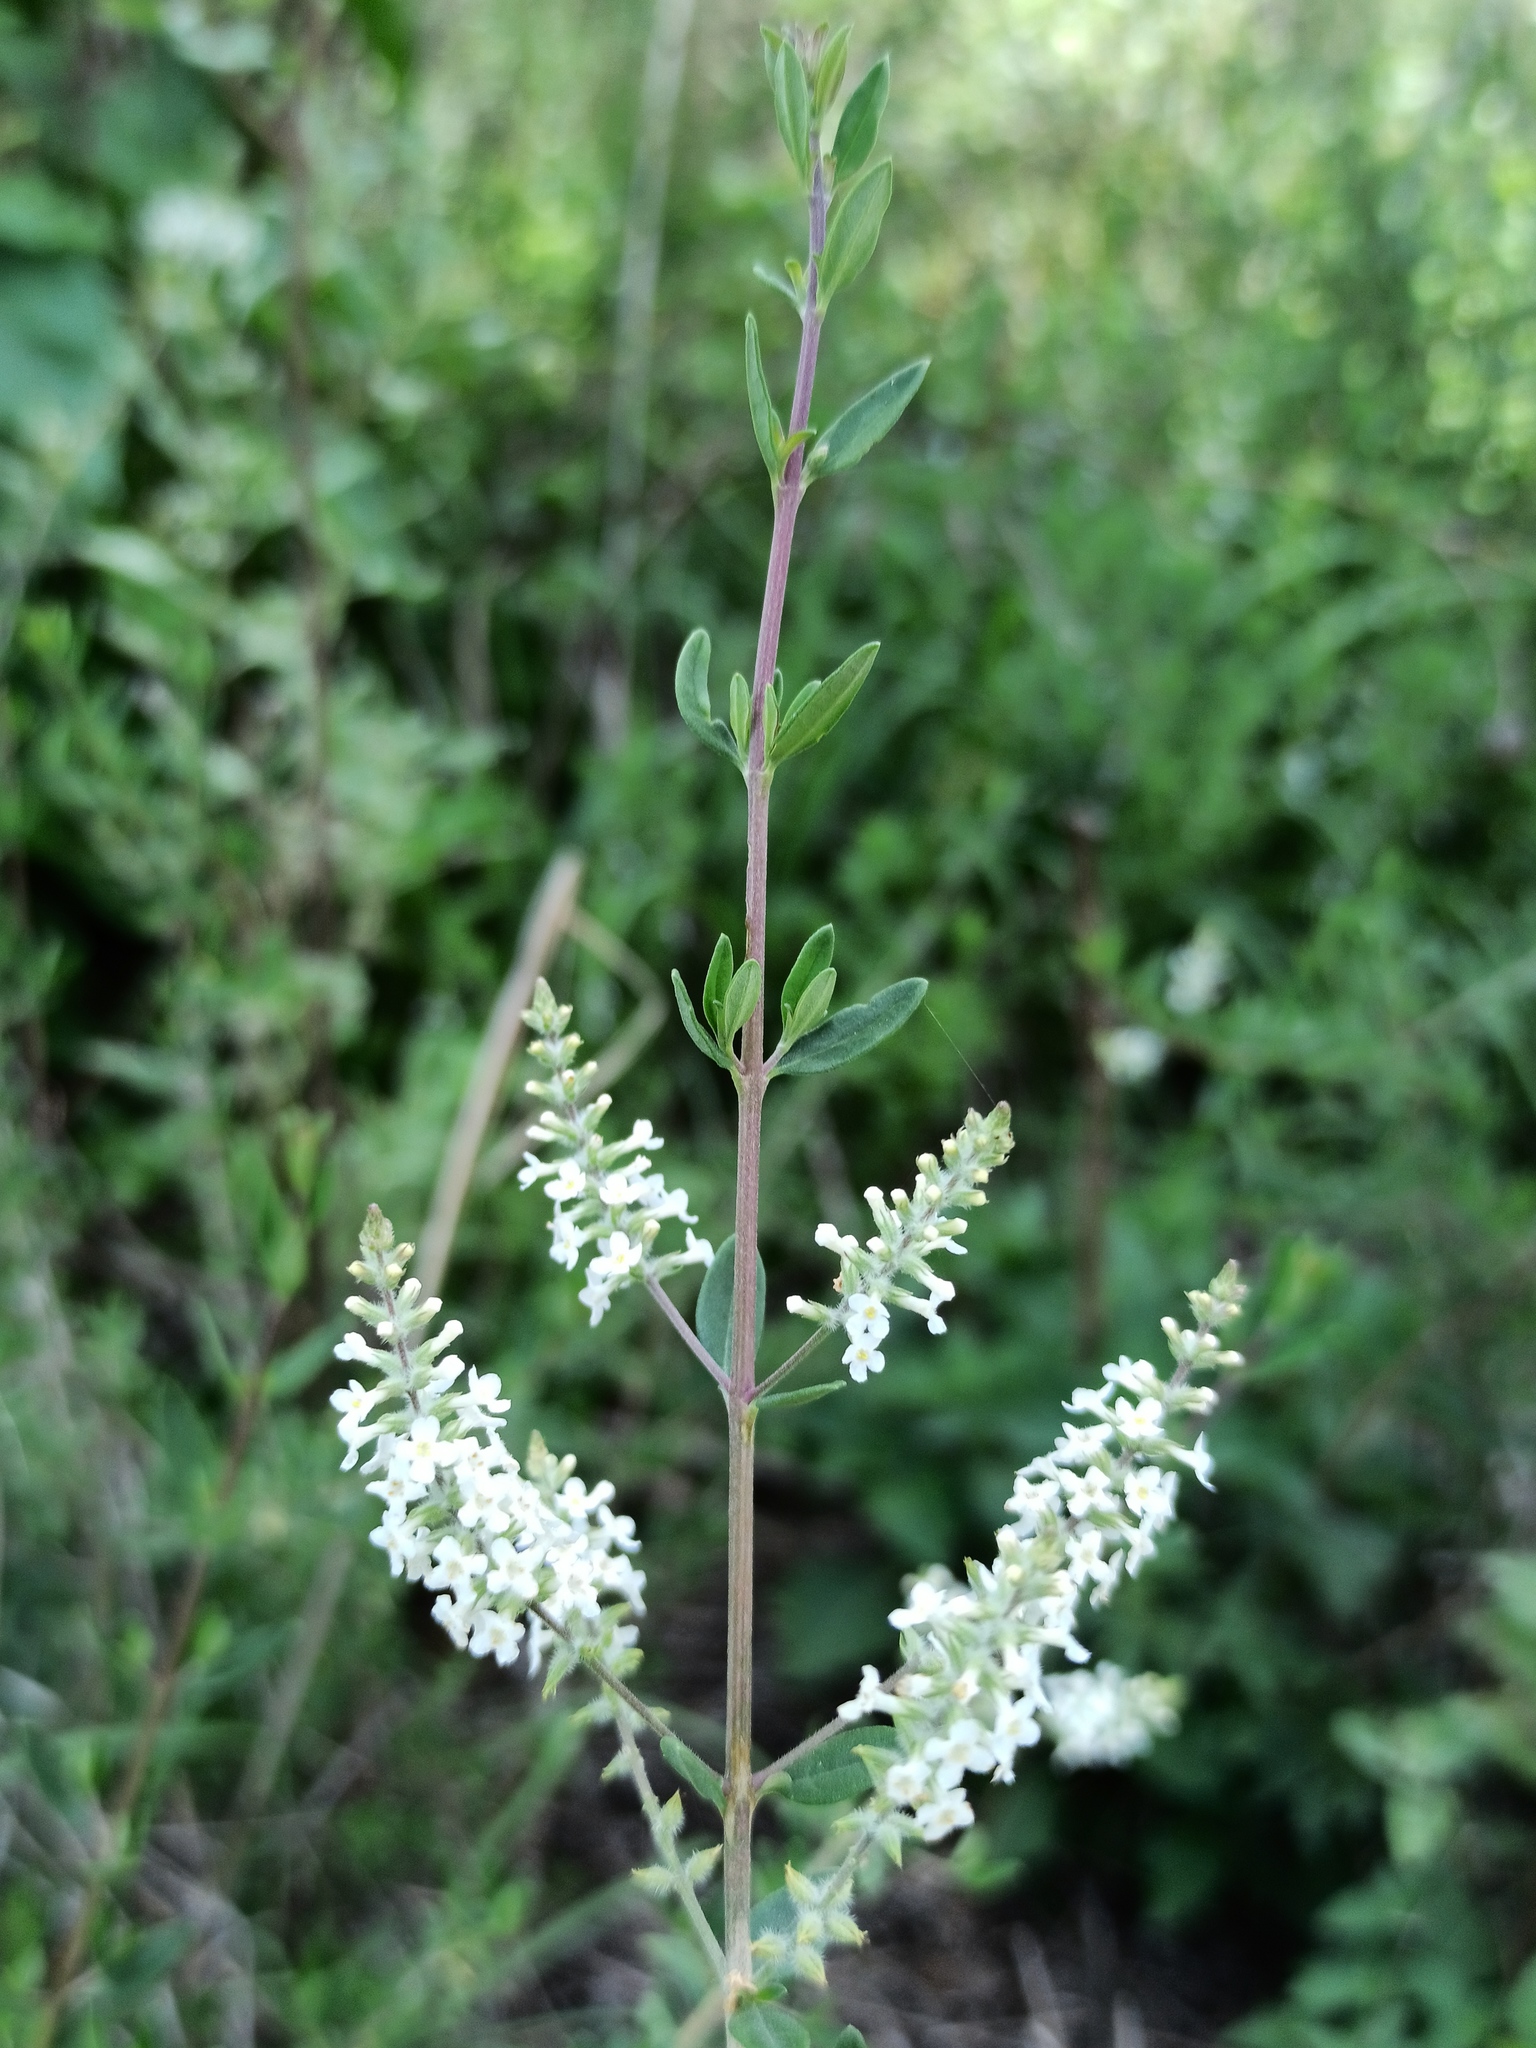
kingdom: Plantae
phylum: Tracheophyta
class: Magnoliopsida
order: Lamiales
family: Verbenaceae
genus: Aloysia
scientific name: Aloysia gratissima
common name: Common bee-brush
